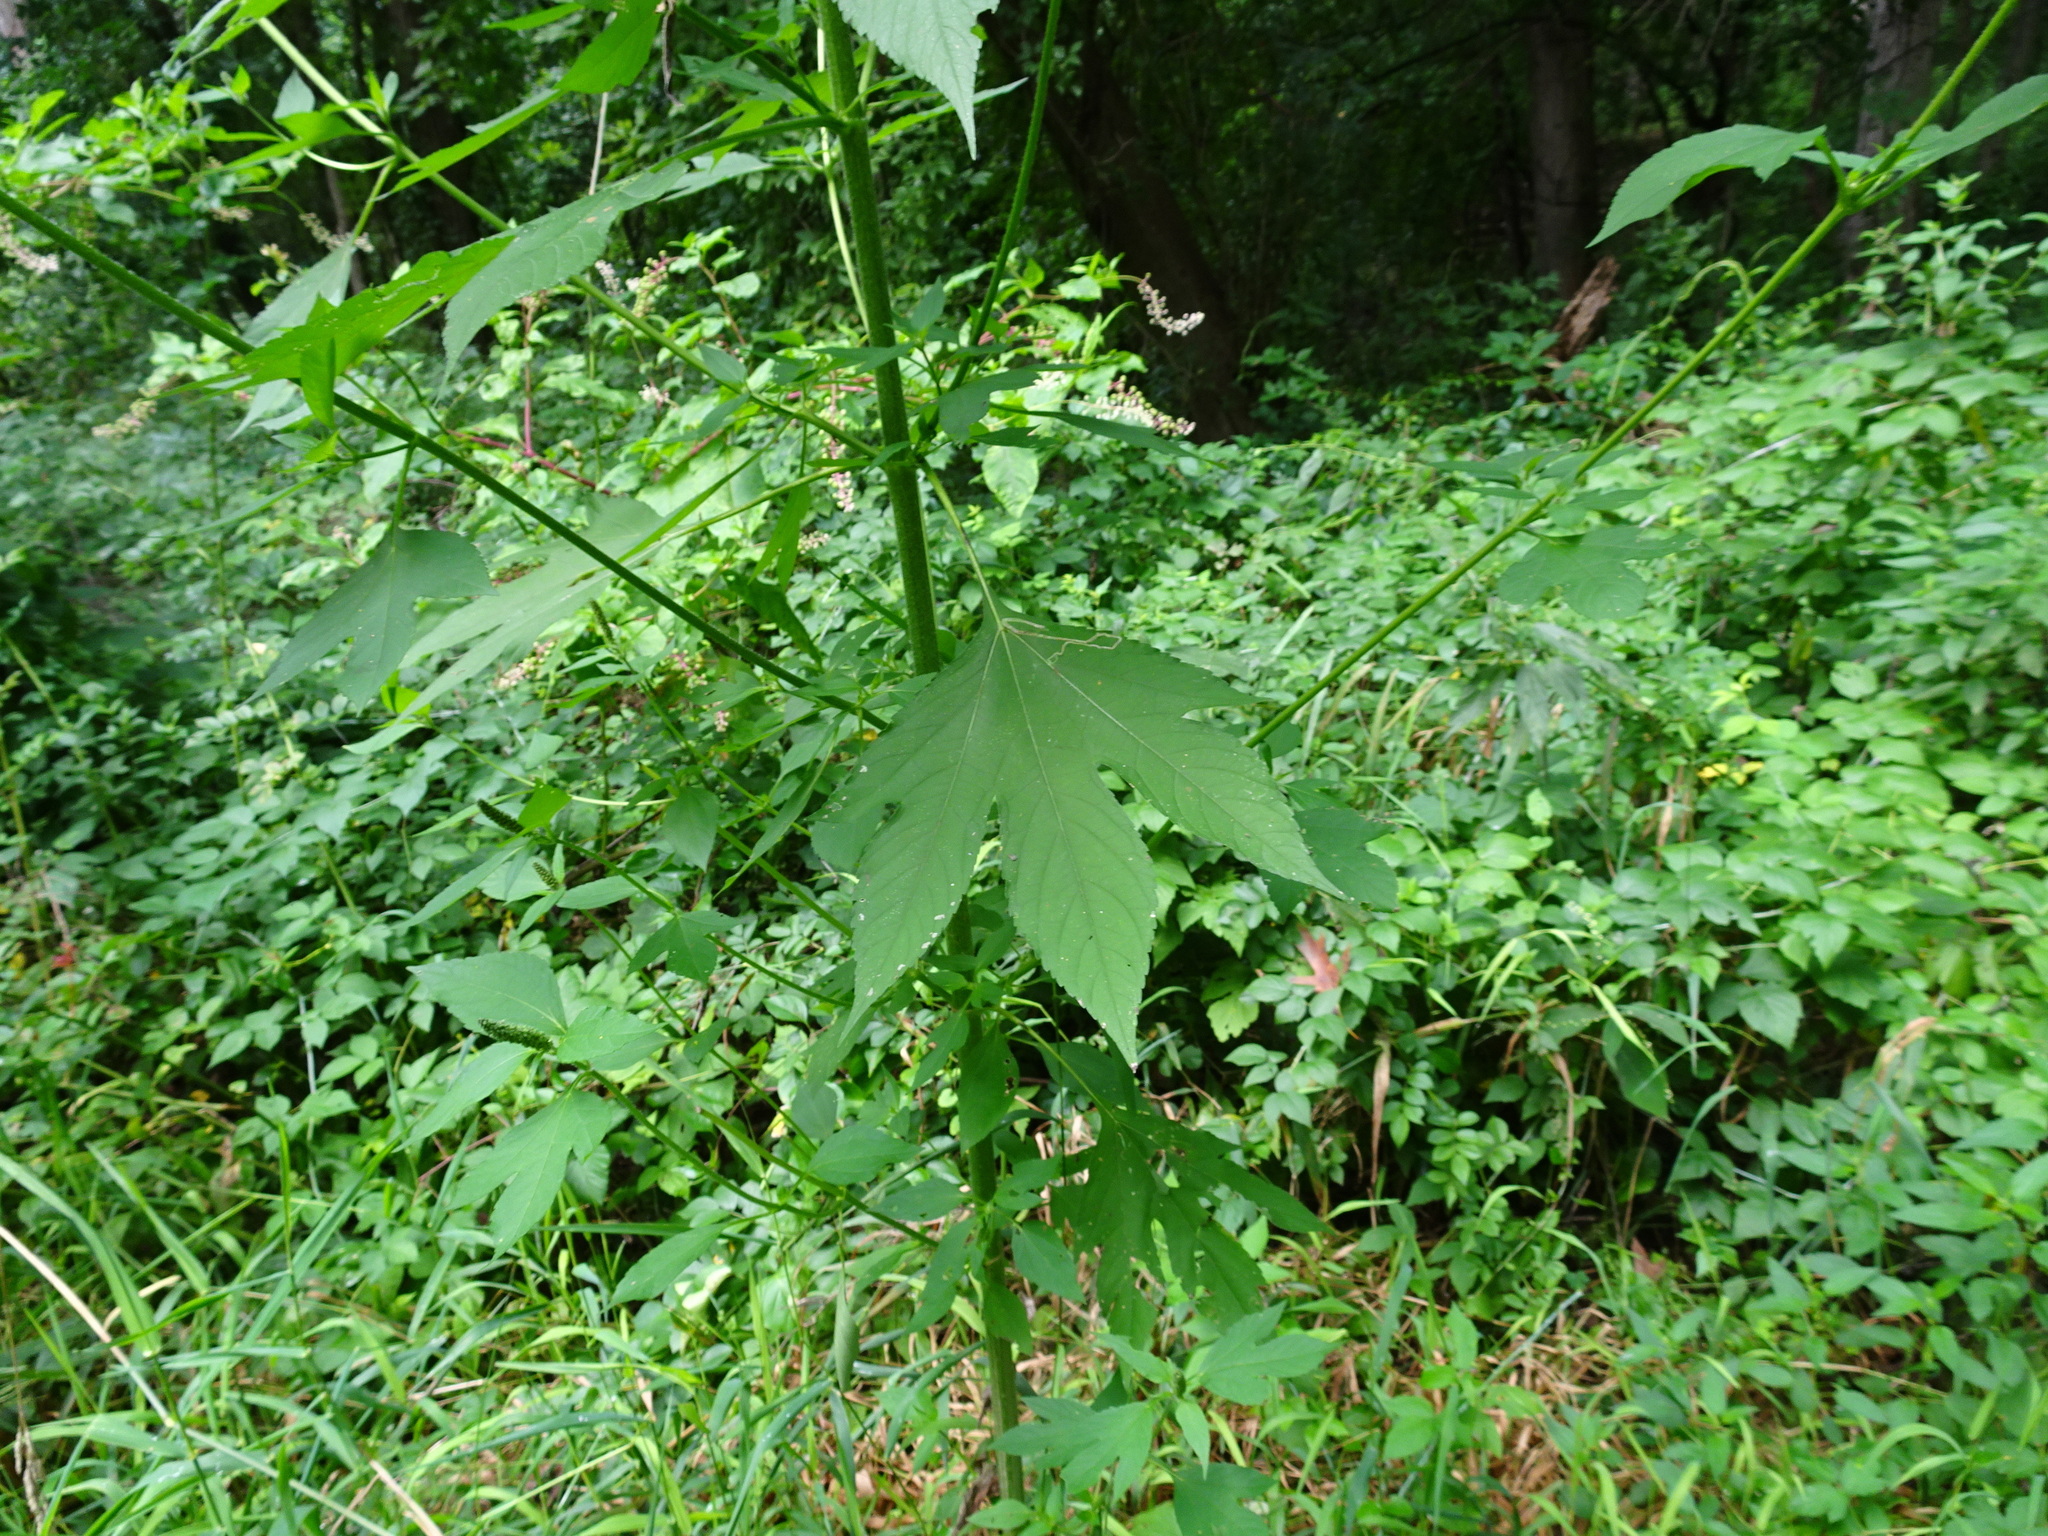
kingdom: Plantae
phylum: Tracheophyta
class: Magnoliopsida
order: Asterales
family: Asteraceae
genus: Ambrosia
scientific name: Ambrosia trifida
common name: Giant ragweed
